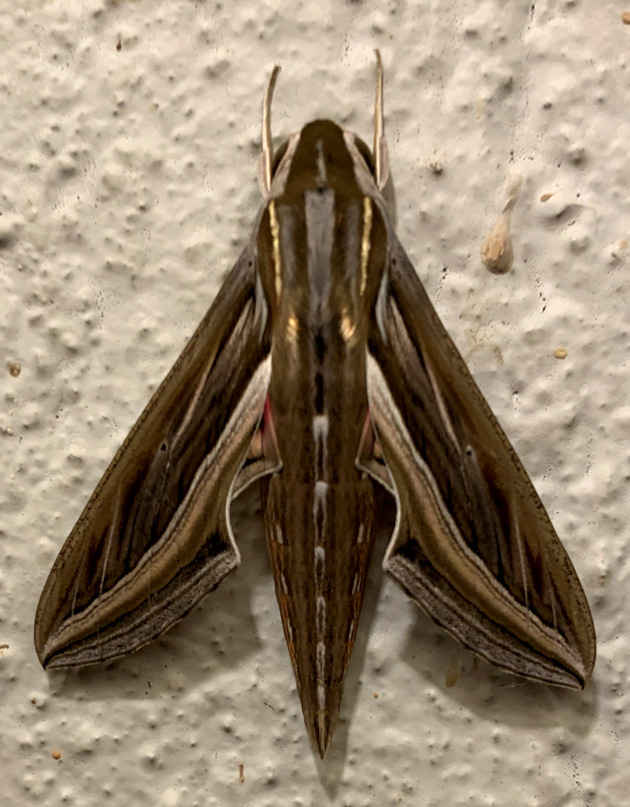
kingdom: Animalia
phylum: Arthropoda
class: Insecta
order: Lepidoptera
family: Sphingidae
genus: Hippotion
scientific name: Hippotion celerio
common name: Silver-striped hawk-moth
